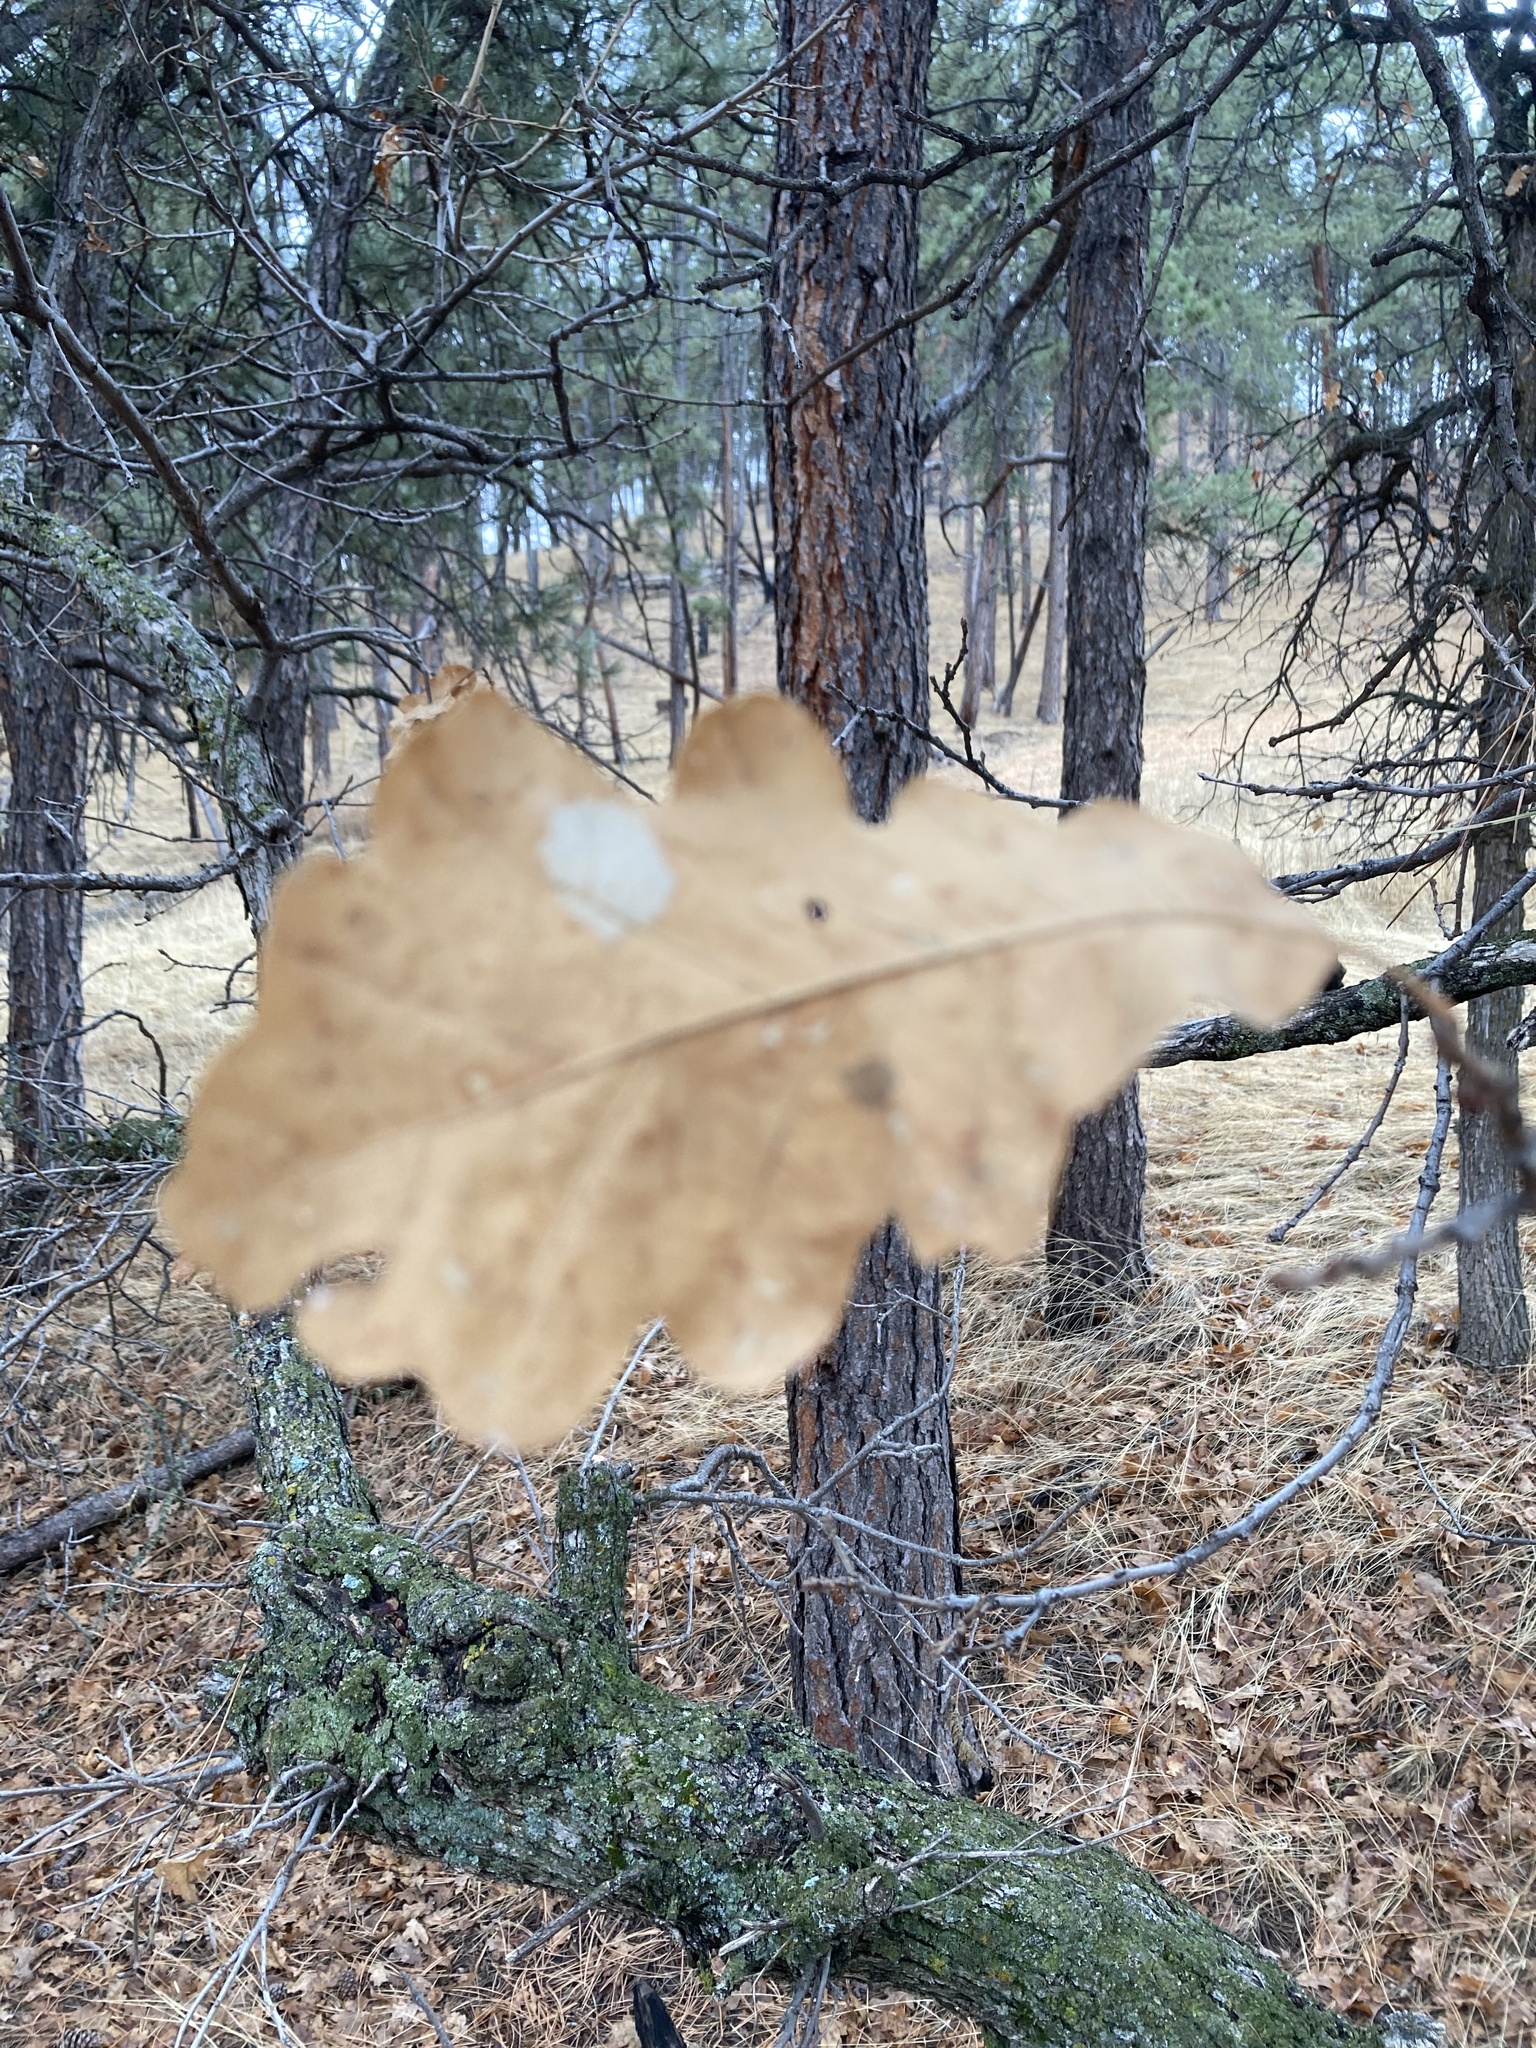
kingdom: Plantae
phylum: Tracheophyta
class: Magnoliopsida
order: Fagales
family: Fagaceae
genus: Quercus
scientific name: Quercus macrocarpa
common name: Bur oak
